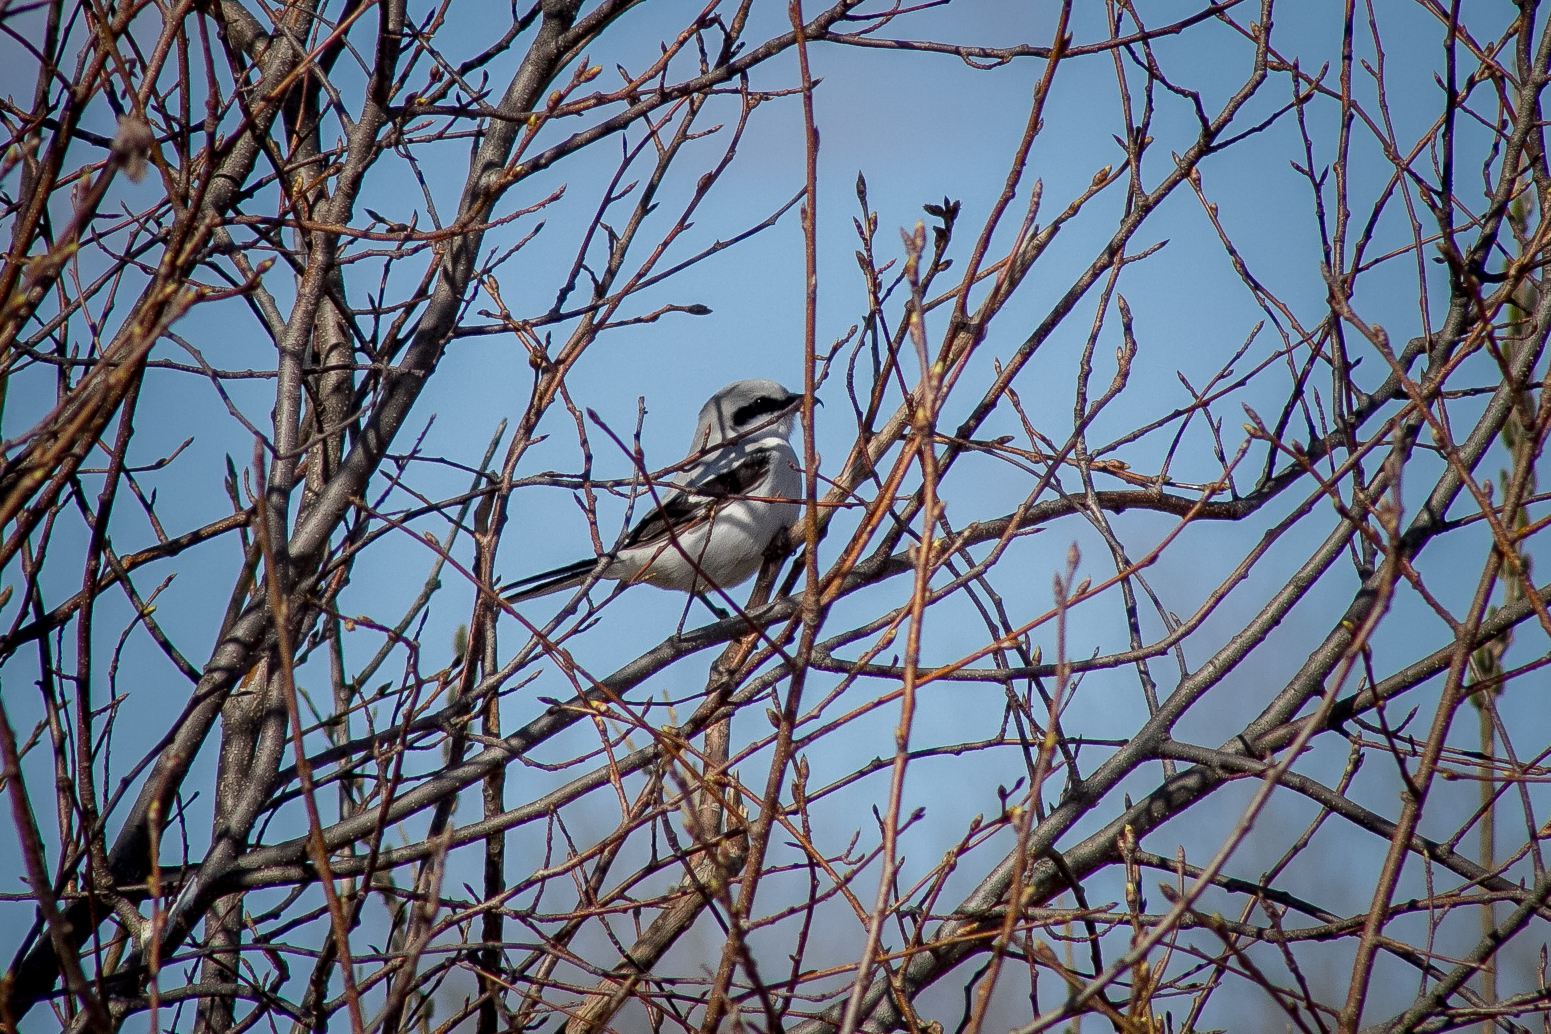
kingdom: Animalia
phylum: Chordata
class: Aves
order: Passeriformes
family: Laniidae
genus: Lanius
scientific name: Lanius excubitor
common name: Great grey shrike
